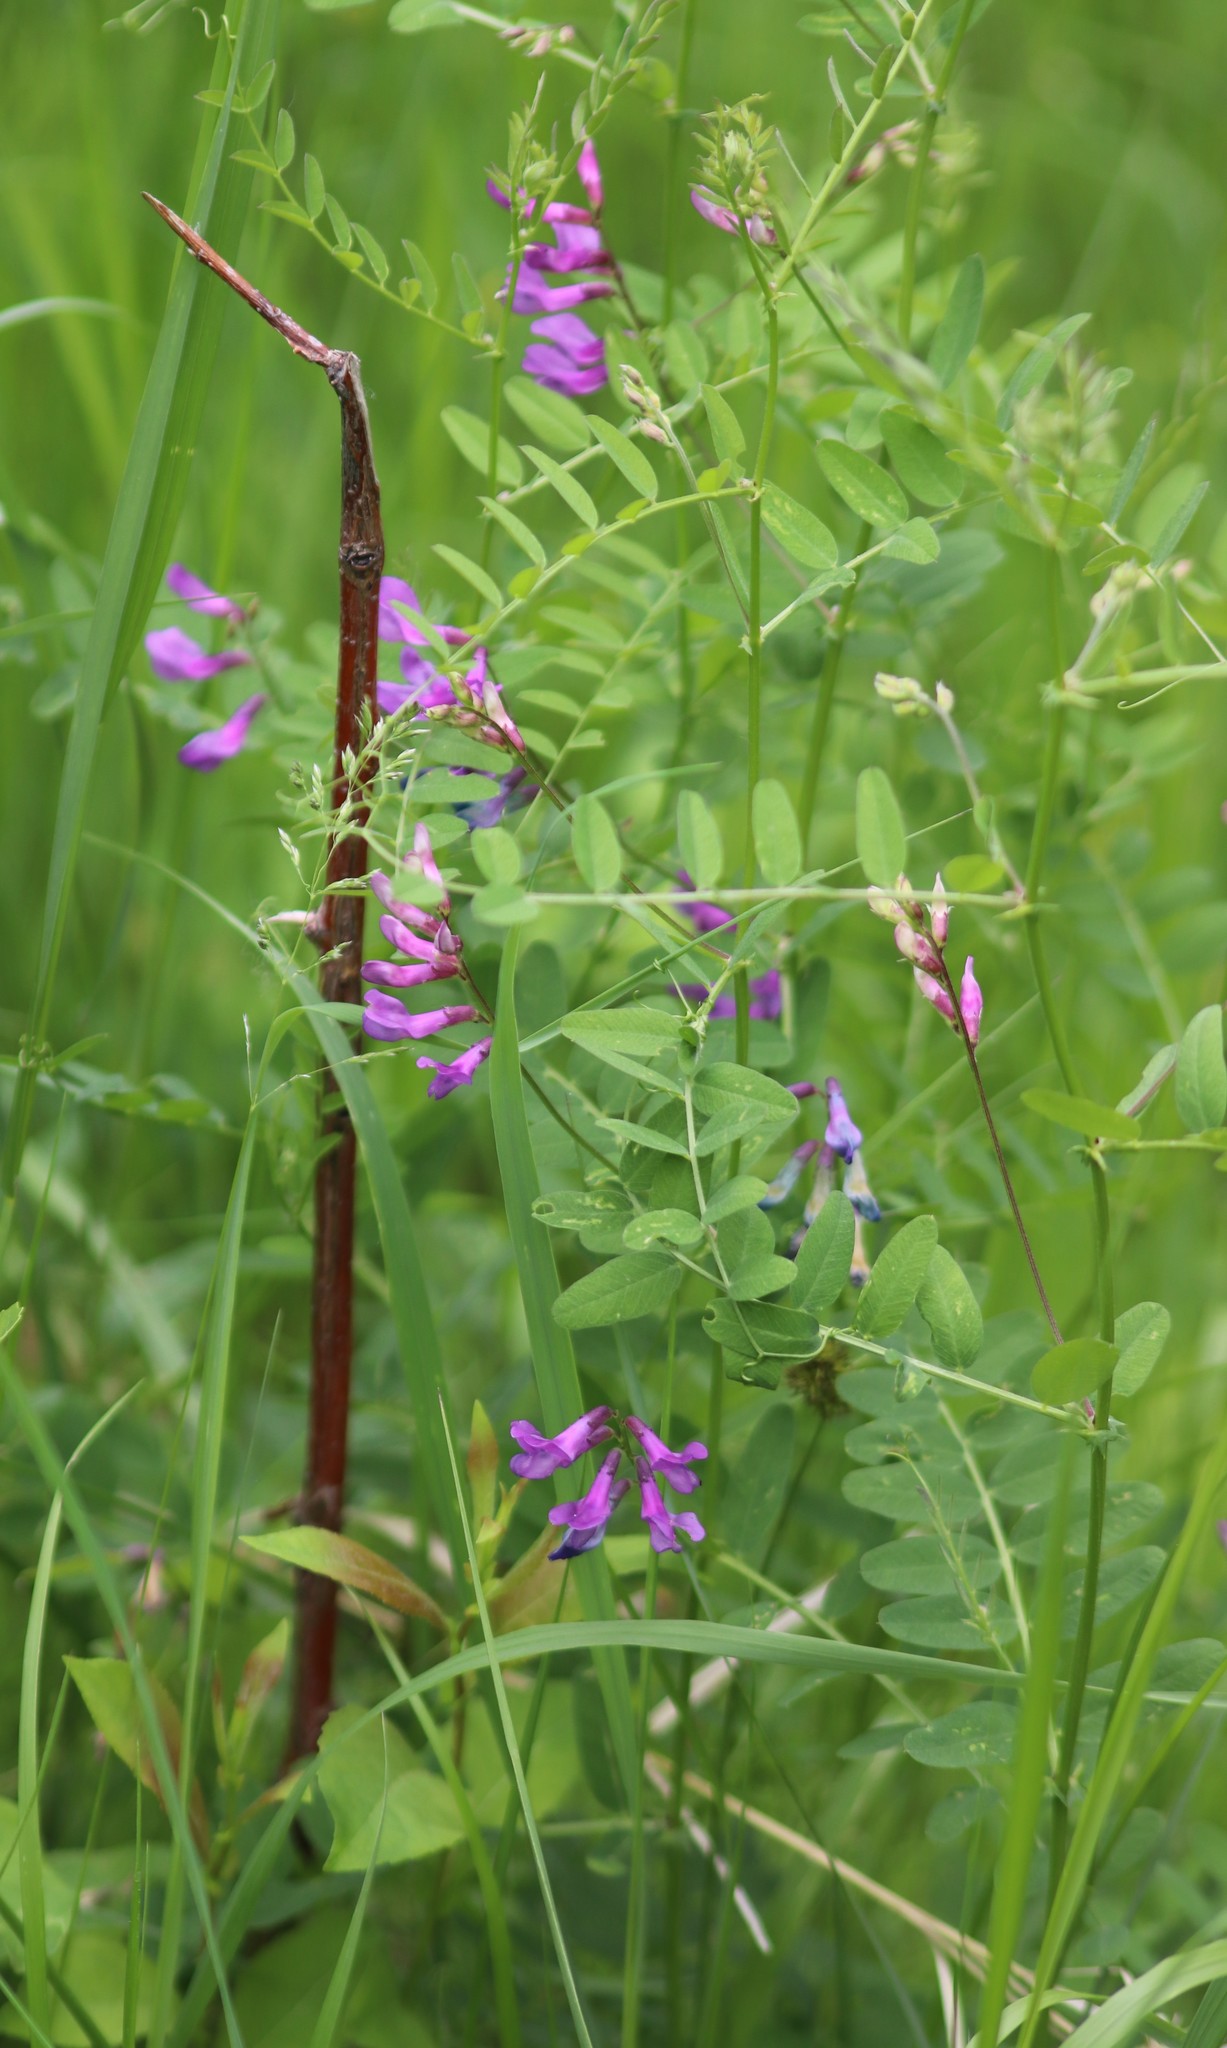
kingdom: Plantae
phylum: Tracheophyta
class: Magnoliopsida
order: Fabales
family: Fabaceae
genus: Vicia
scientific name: Vicia americana
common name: American vetch
